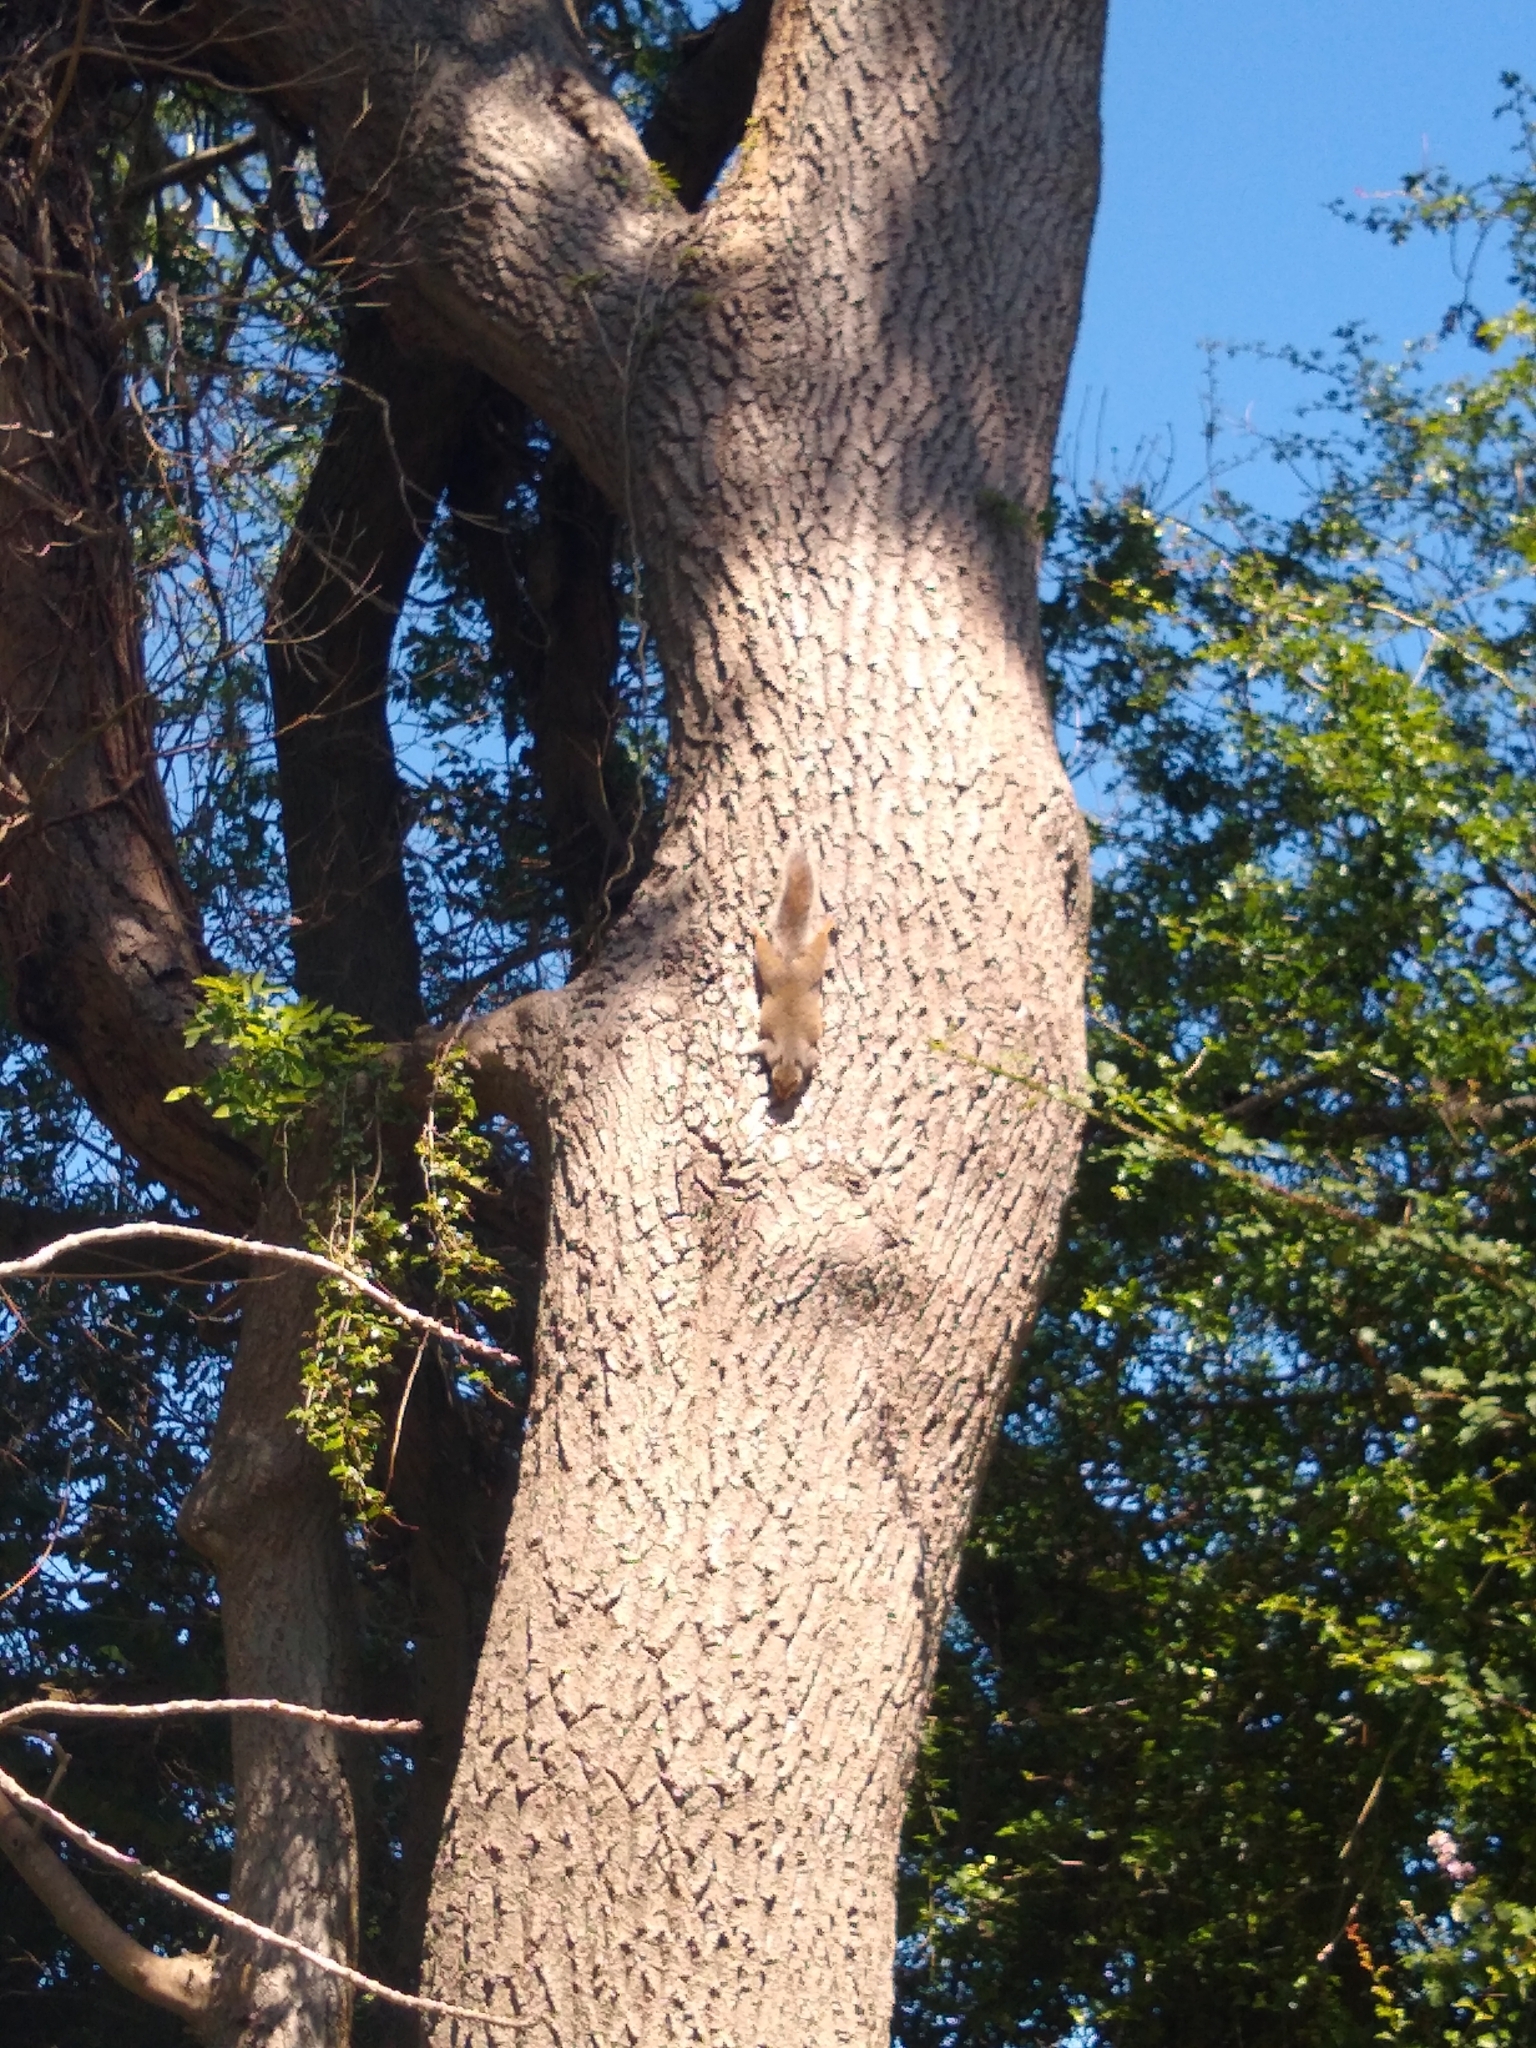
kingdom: Animalia
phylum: Chordata
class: Mammalia
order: Rodentia
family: Sciuridae
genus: Sciurus
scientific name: Sciurus carolinensis
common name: Eastern gray squirrel
